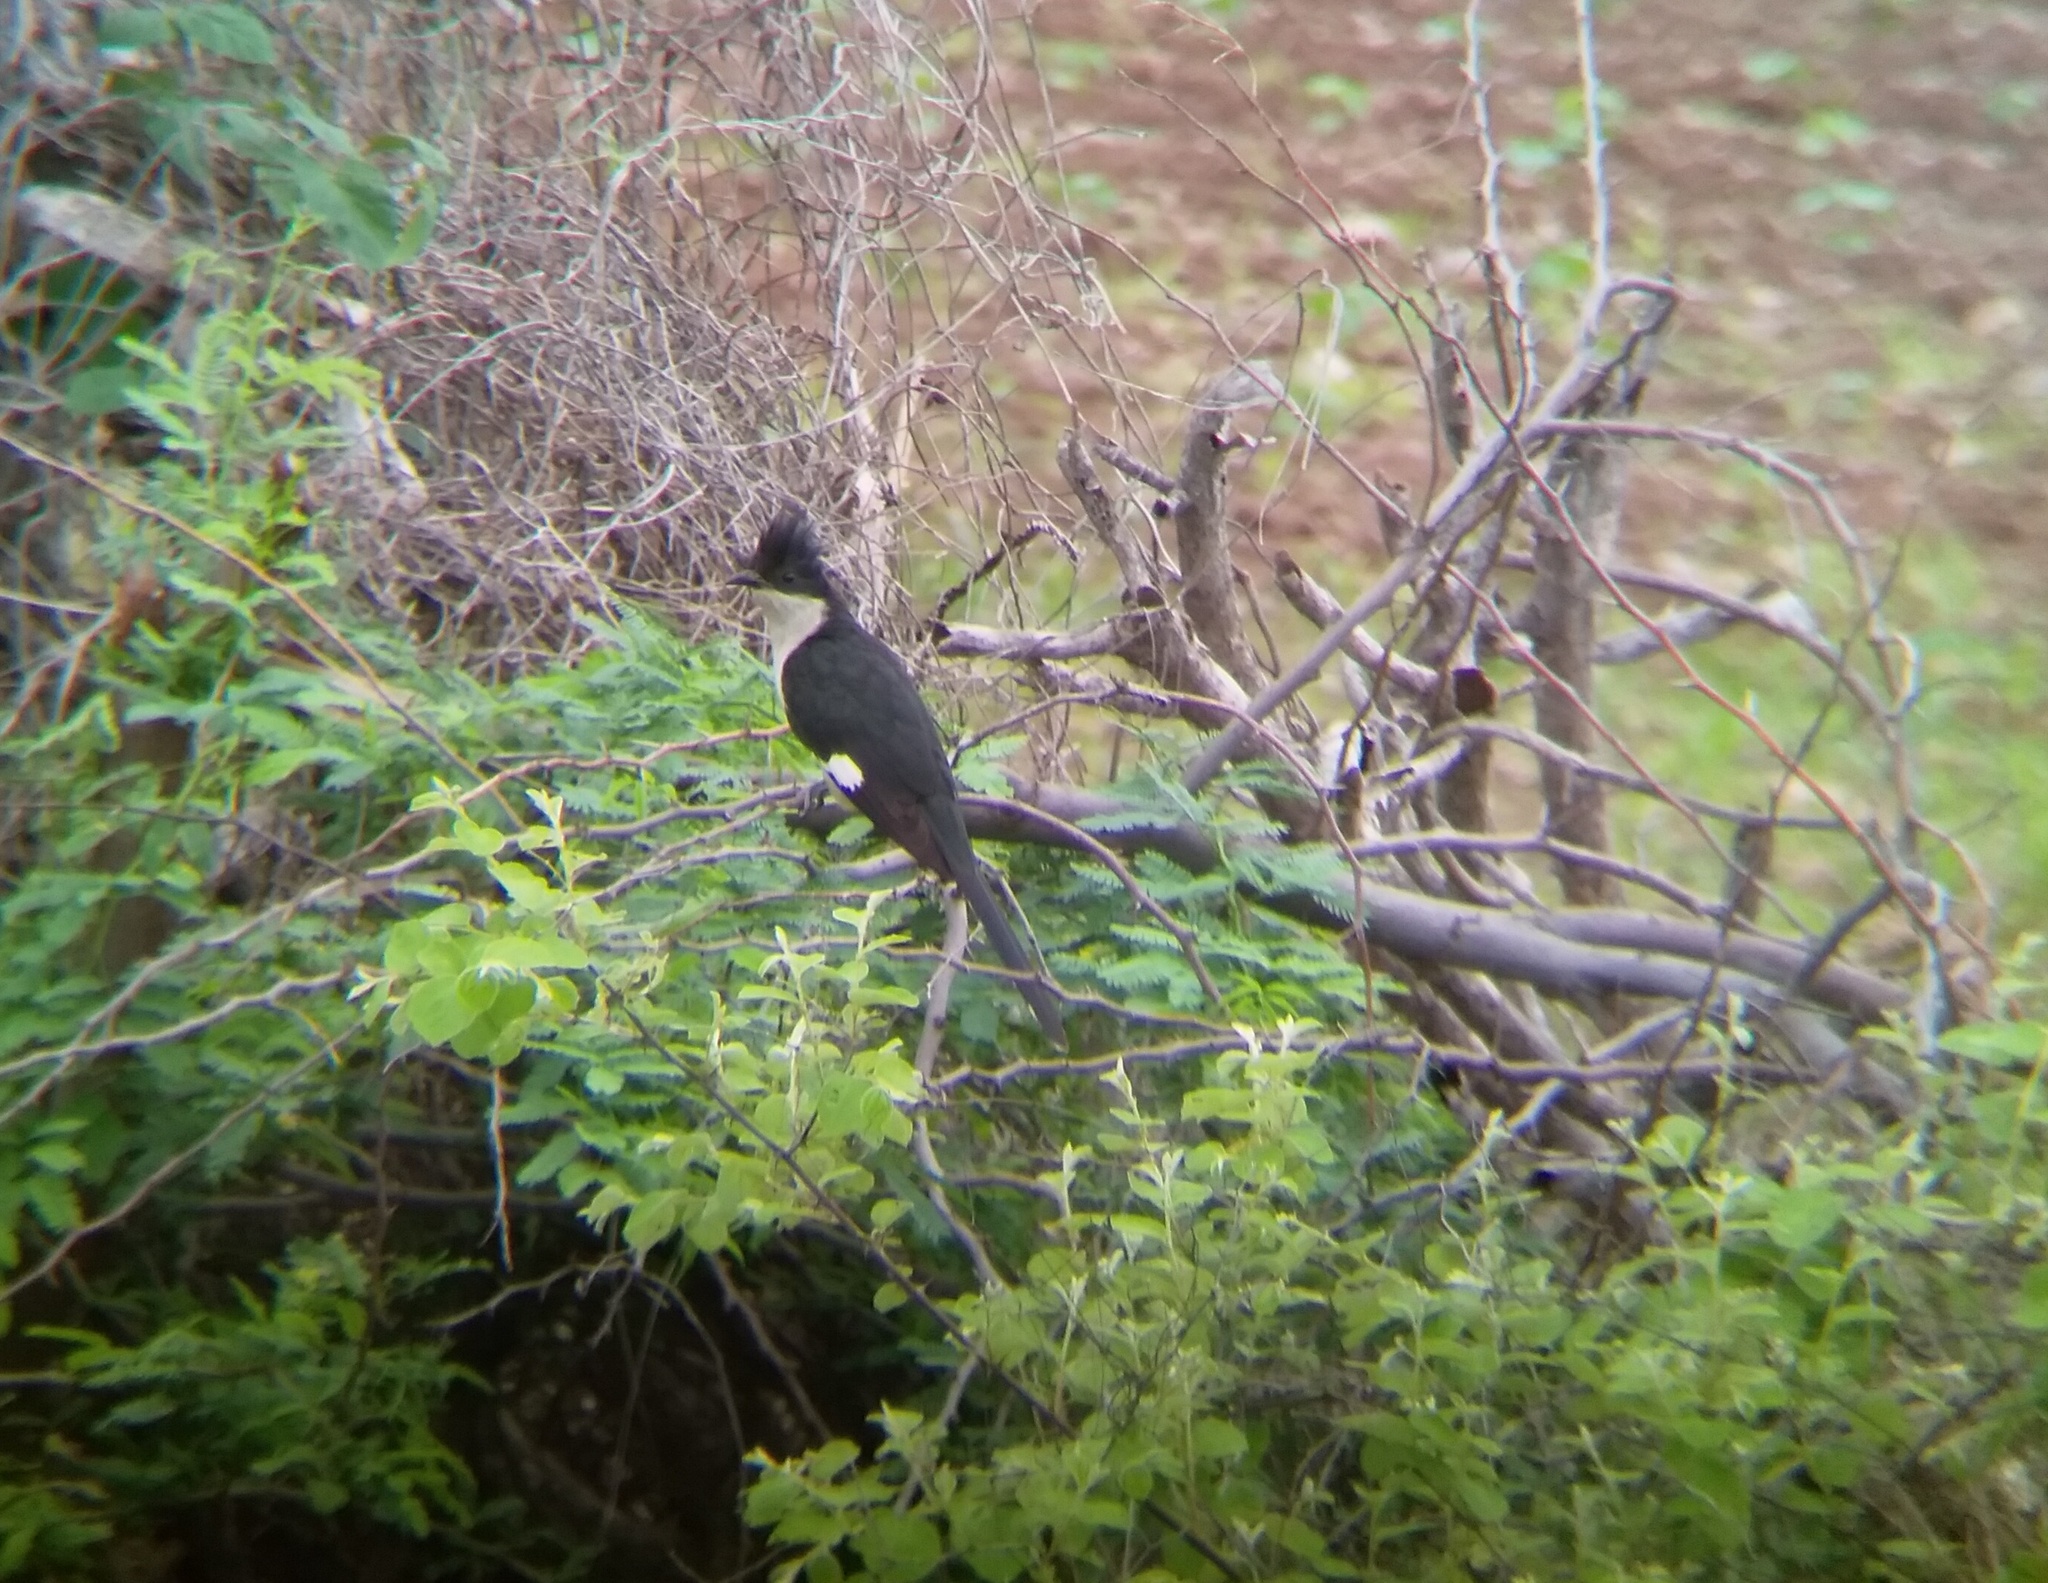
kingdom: Animalia
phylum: Chordata
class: Aves
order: Cuculiformes
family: Cuculidae
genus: Clamator
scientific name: Clamator jacobinus
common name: Jacobin cuckoo
